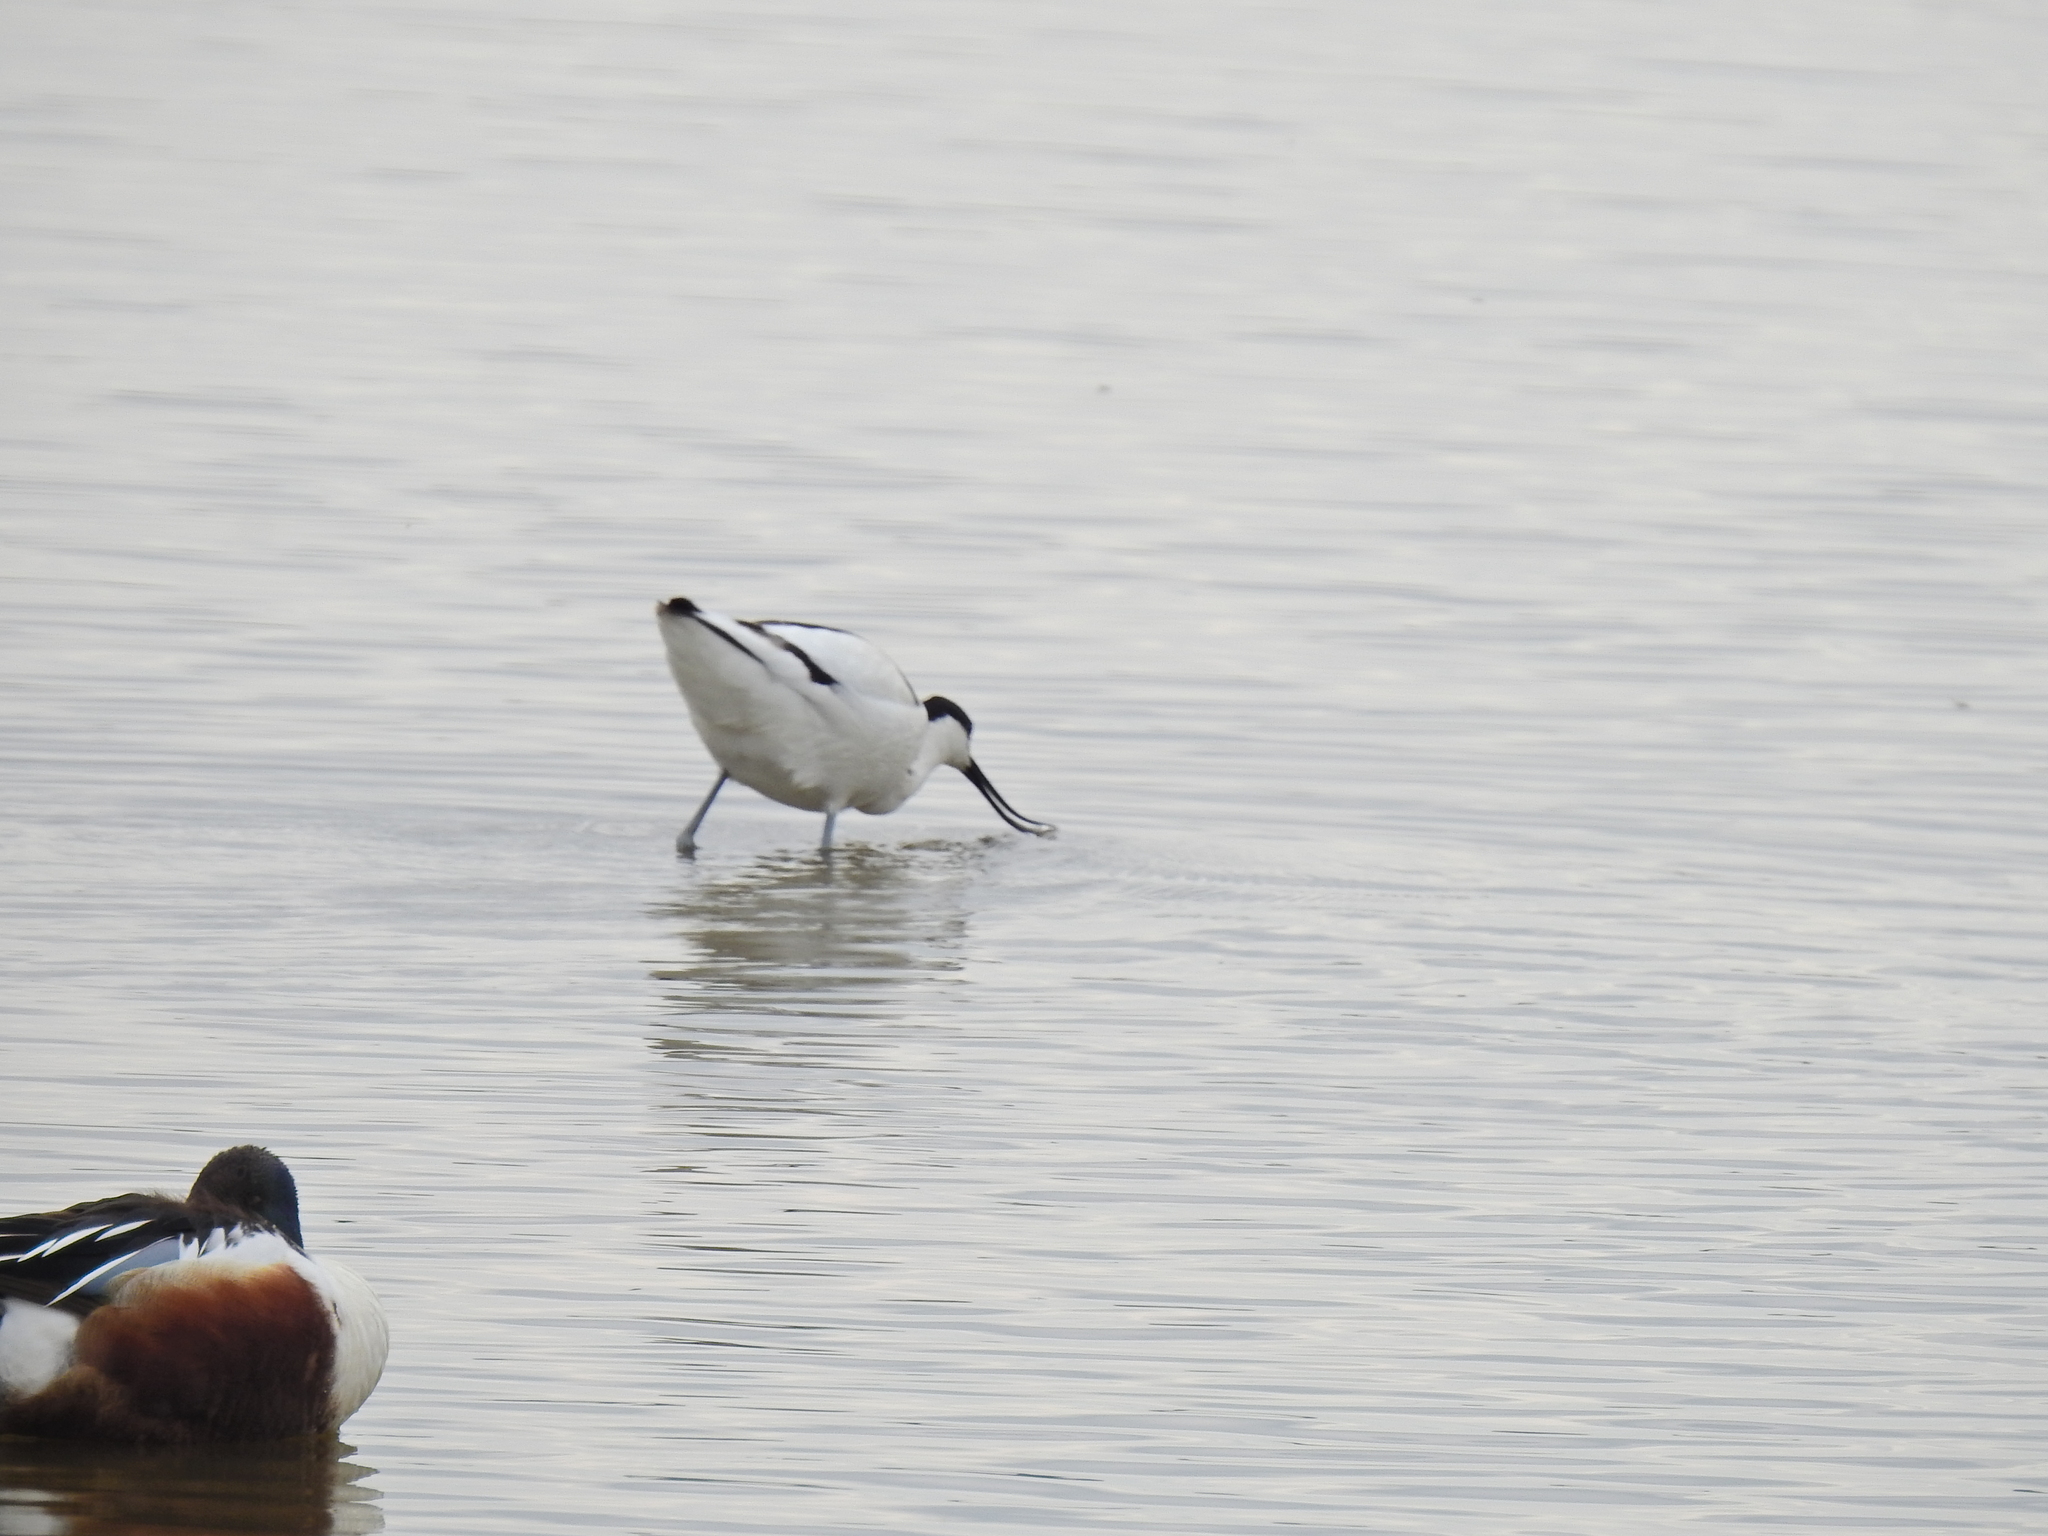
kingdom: Animalia
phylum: Chordata
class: Aves
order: Charadriiformes
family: Recurvirostridae
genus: Recurvirostra
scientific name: Recurvirostra avosetta
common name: Pied avocet
